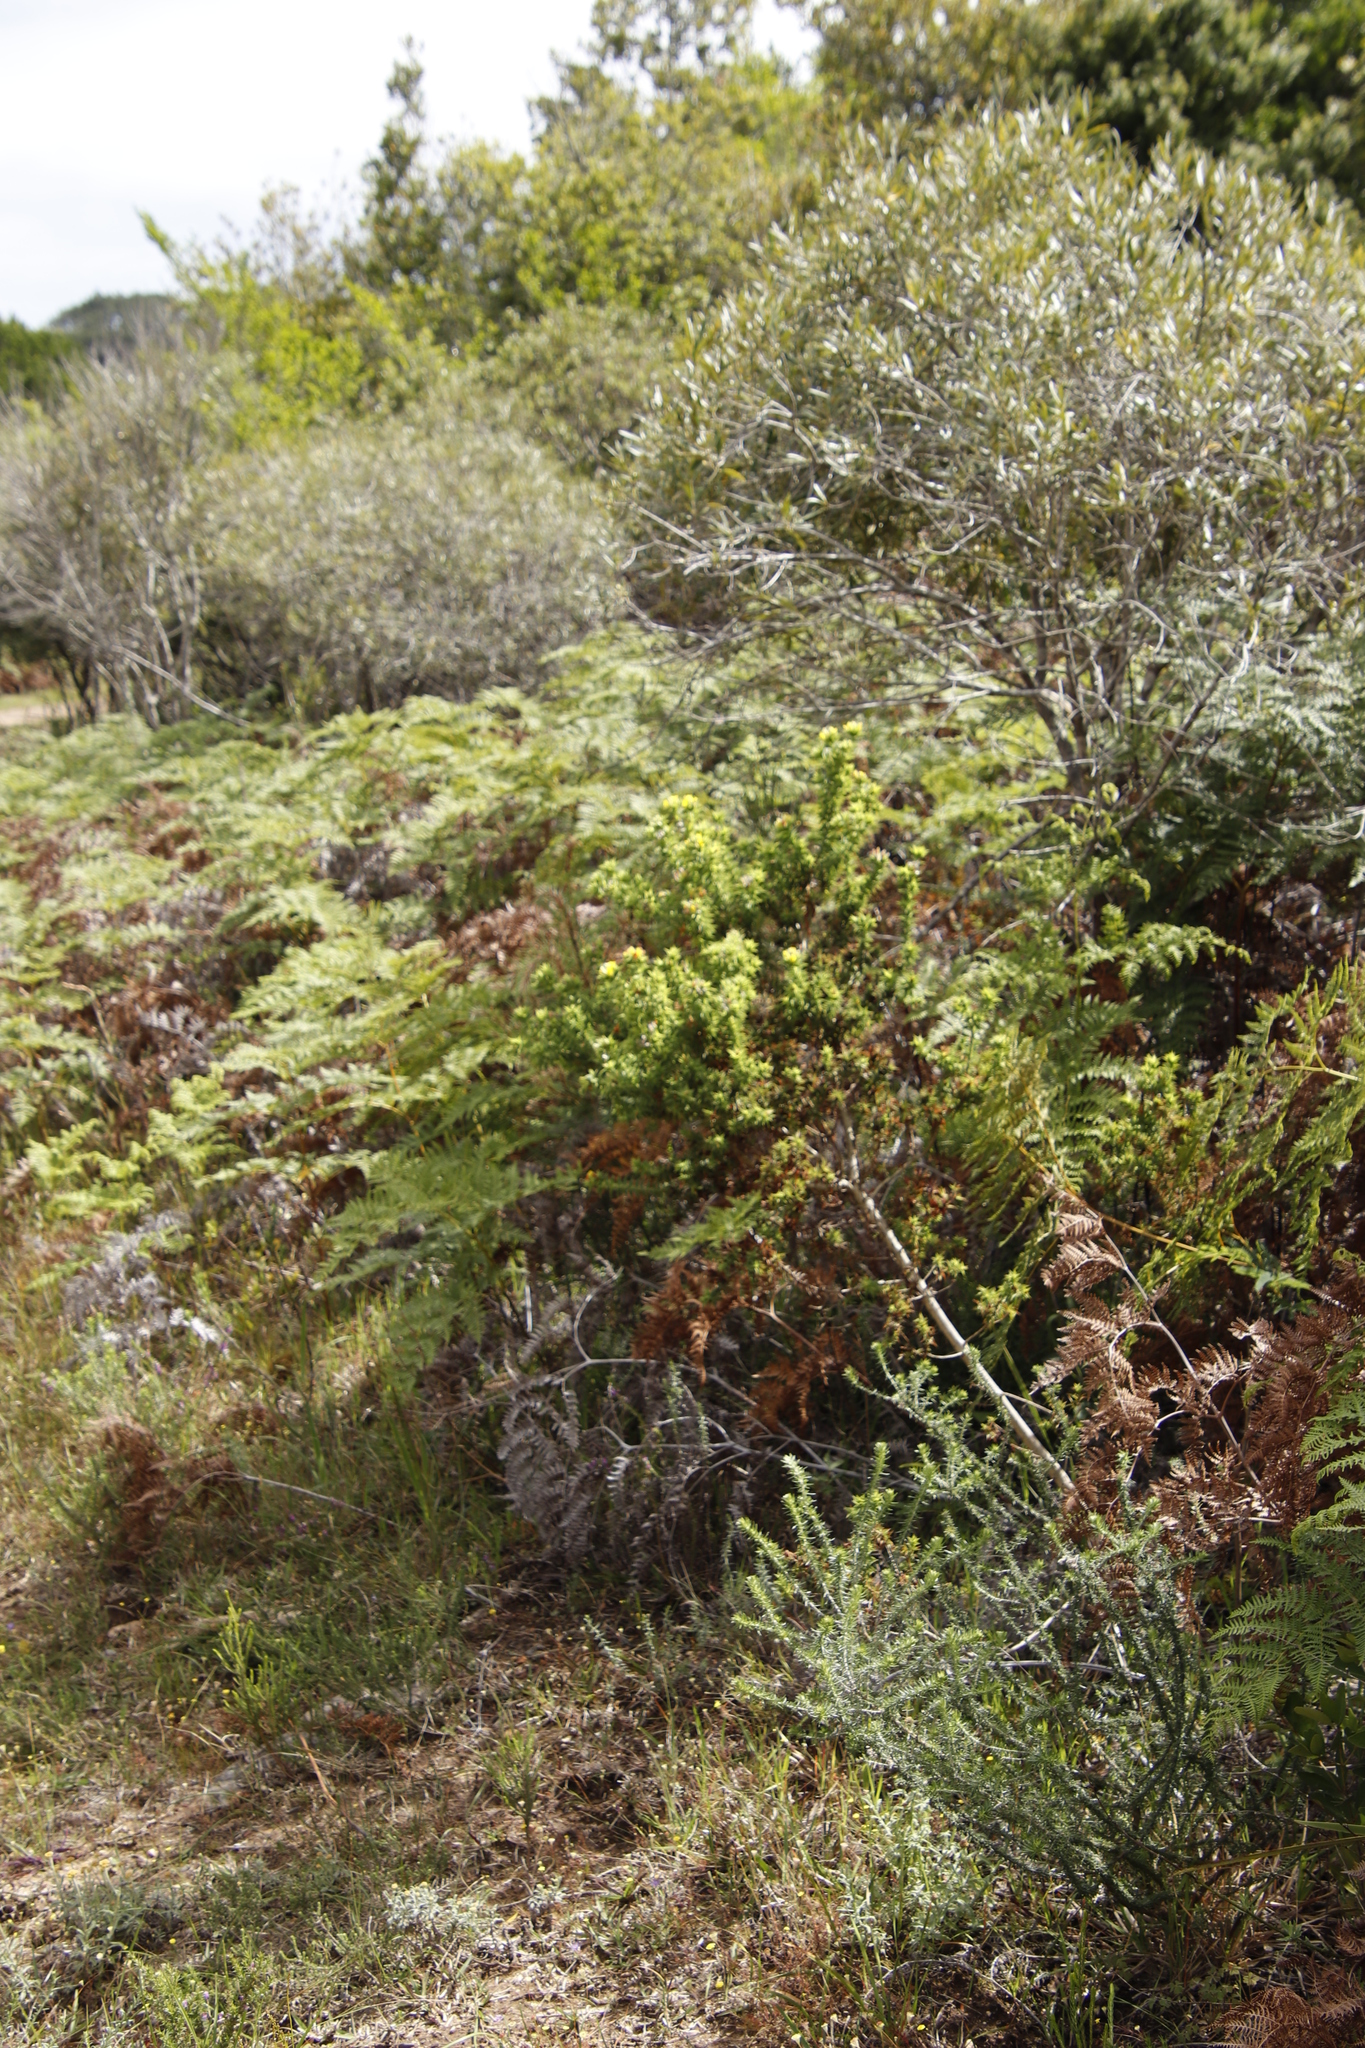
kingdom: Plantae
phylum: Tracheophyta
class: Magnoliopsida
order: Fabales
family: Fabaceae
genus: Aspalathus
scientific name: Aspalathus cordata
